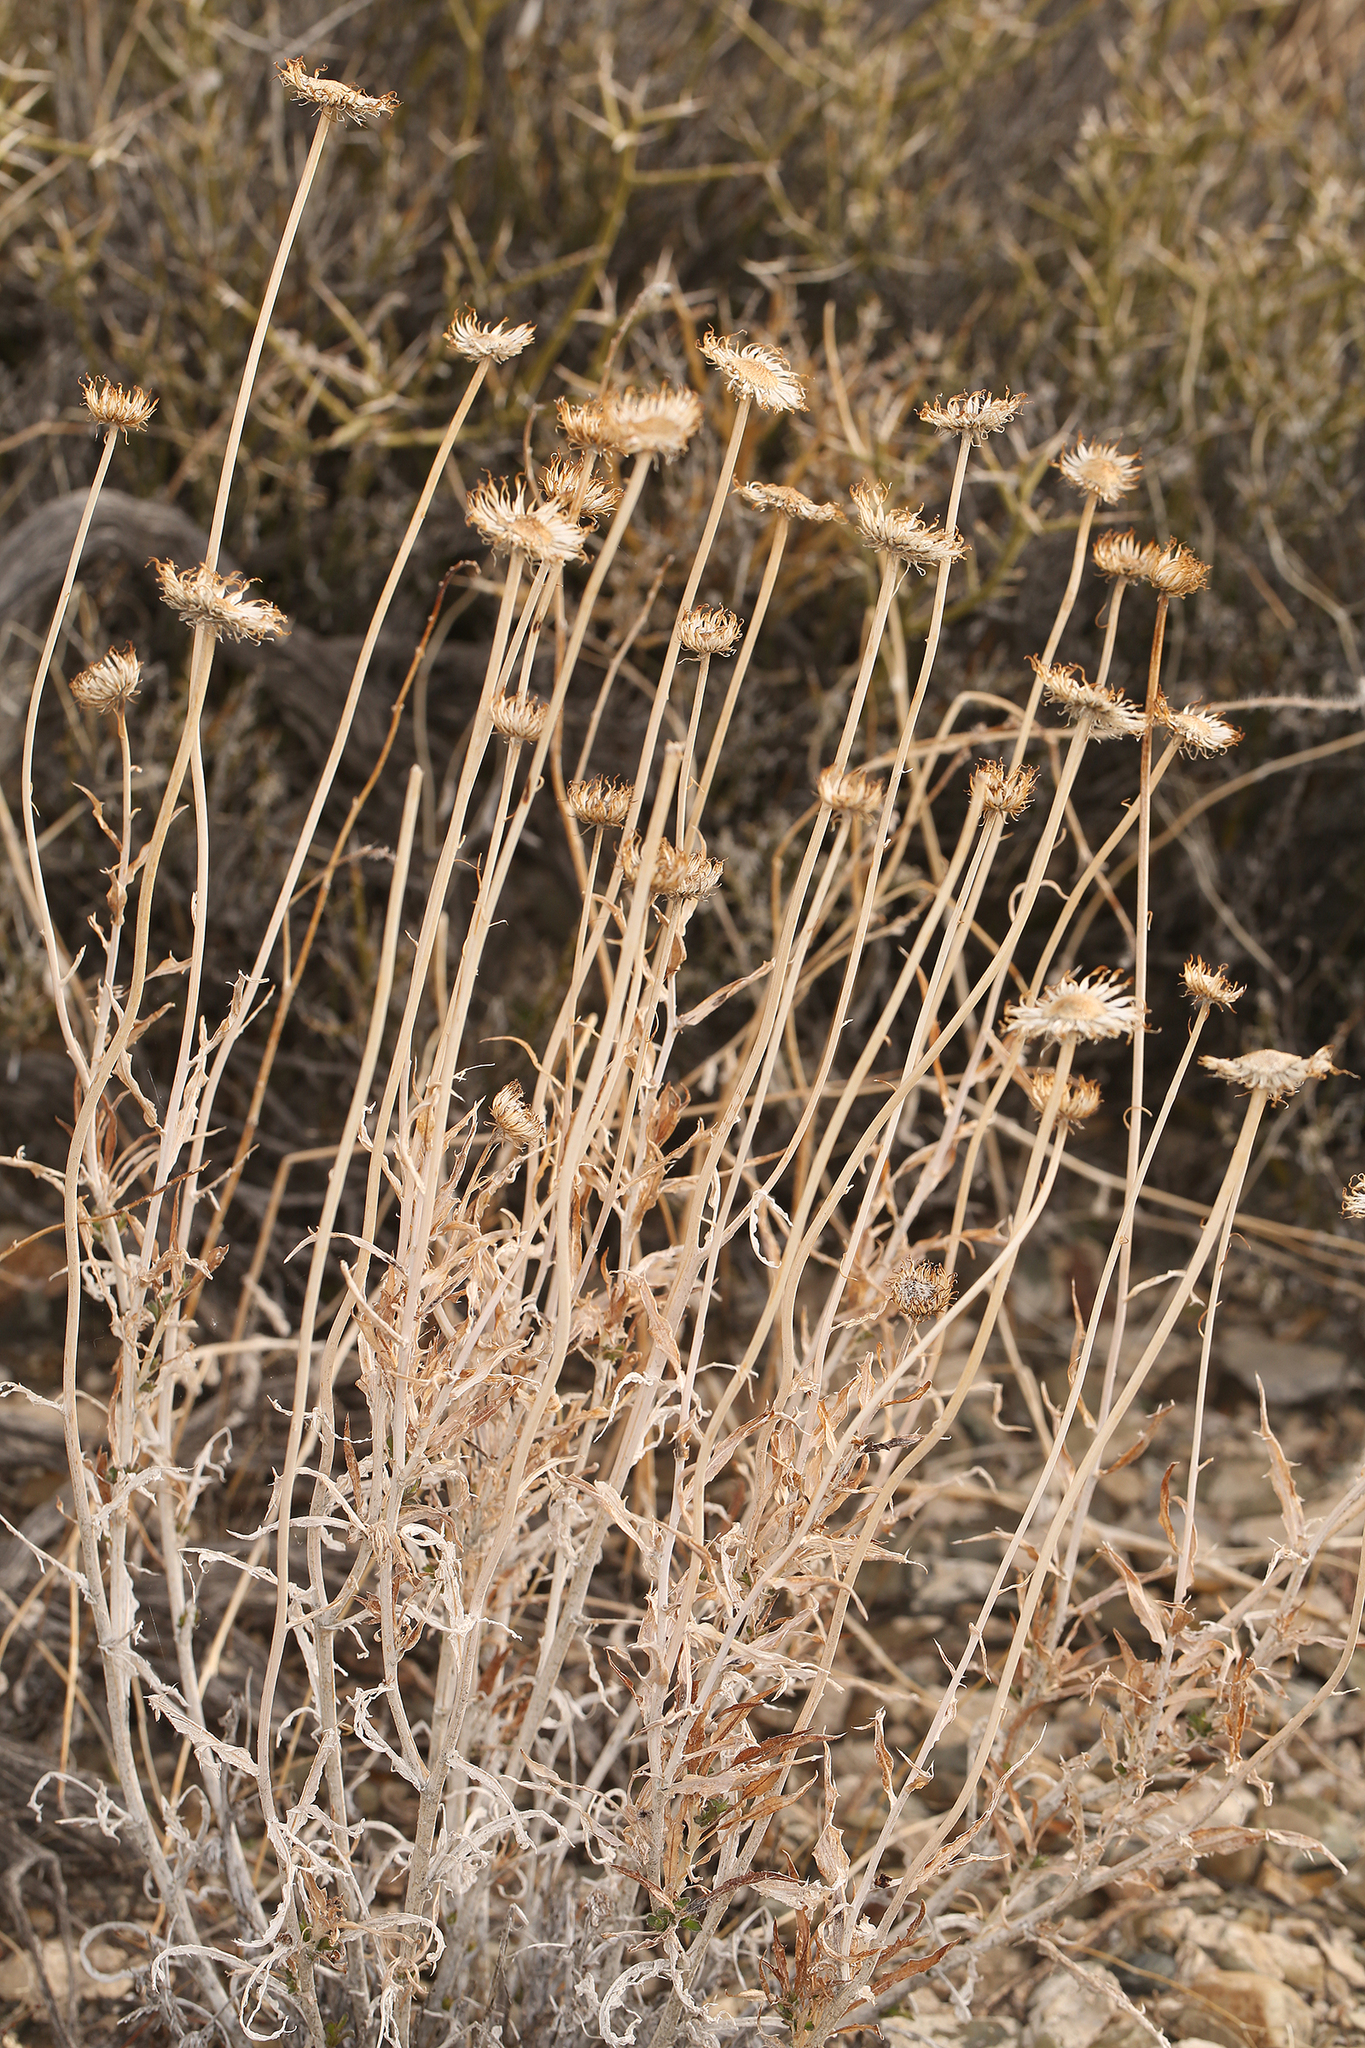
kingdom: Plantae
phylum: Tracheophyta
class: Magnoliopsida
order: Asterales
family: Asteraceae
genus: Xylorhiza
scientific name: Xylorhiza tortifolia
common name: Hurt-leaf woody-aster
